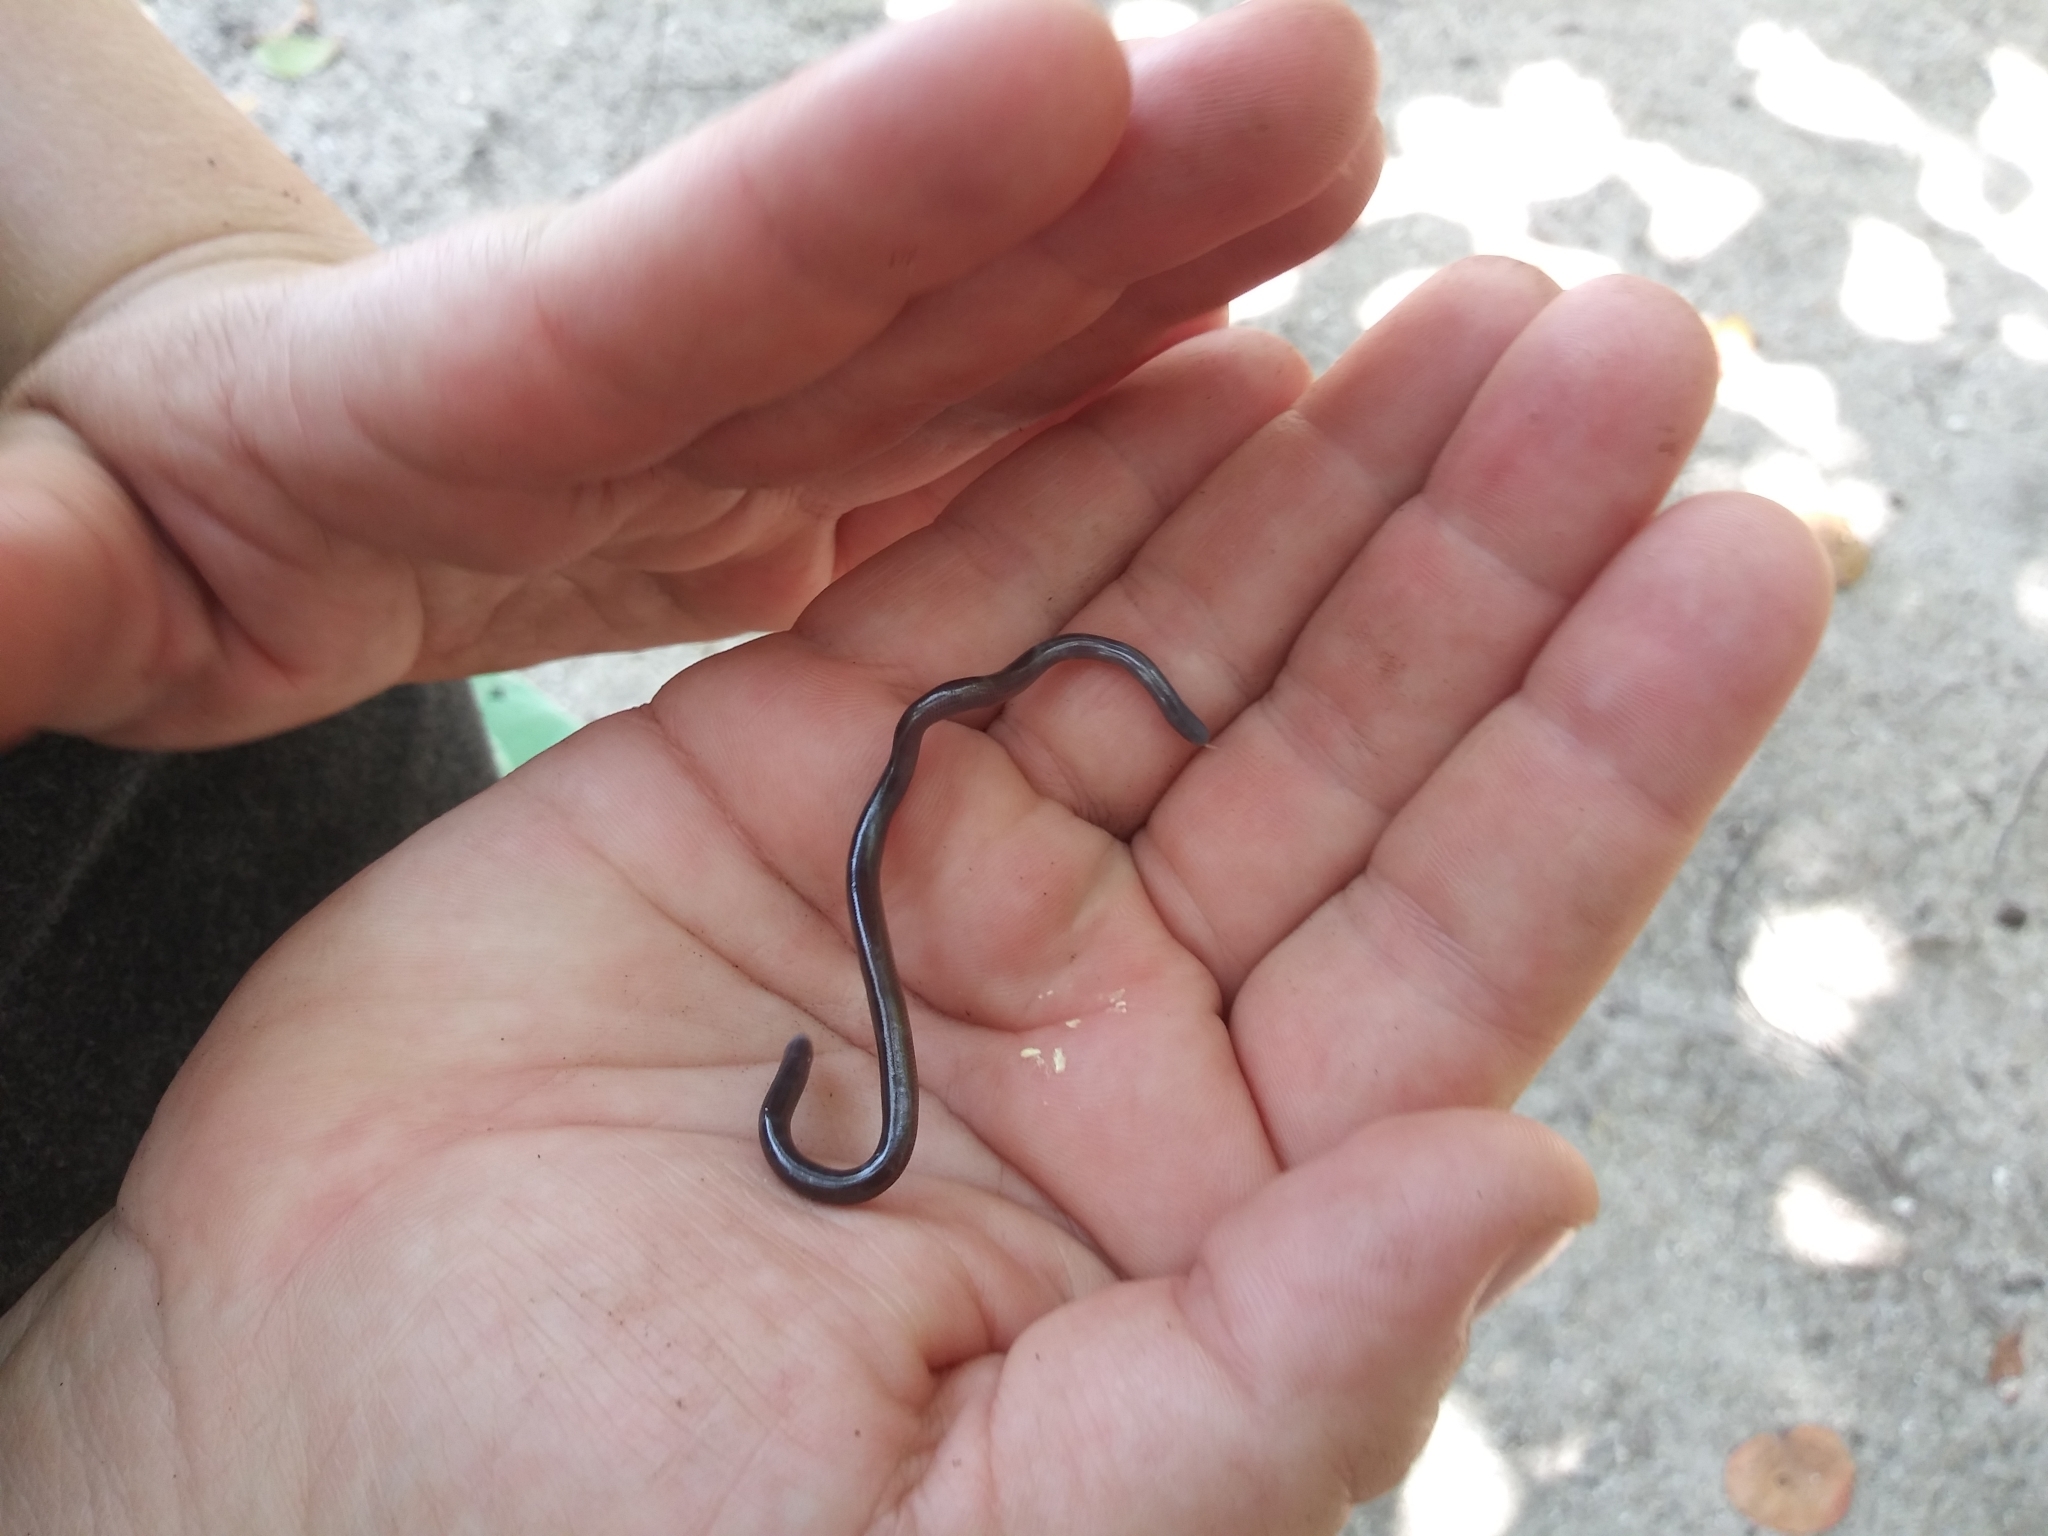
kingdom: Animalia
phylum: Chordata
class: Squamata
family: Typhlopidae
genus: Indotyphlops
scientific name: Indotyphlops braminus
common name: Brahminy blindsnake
